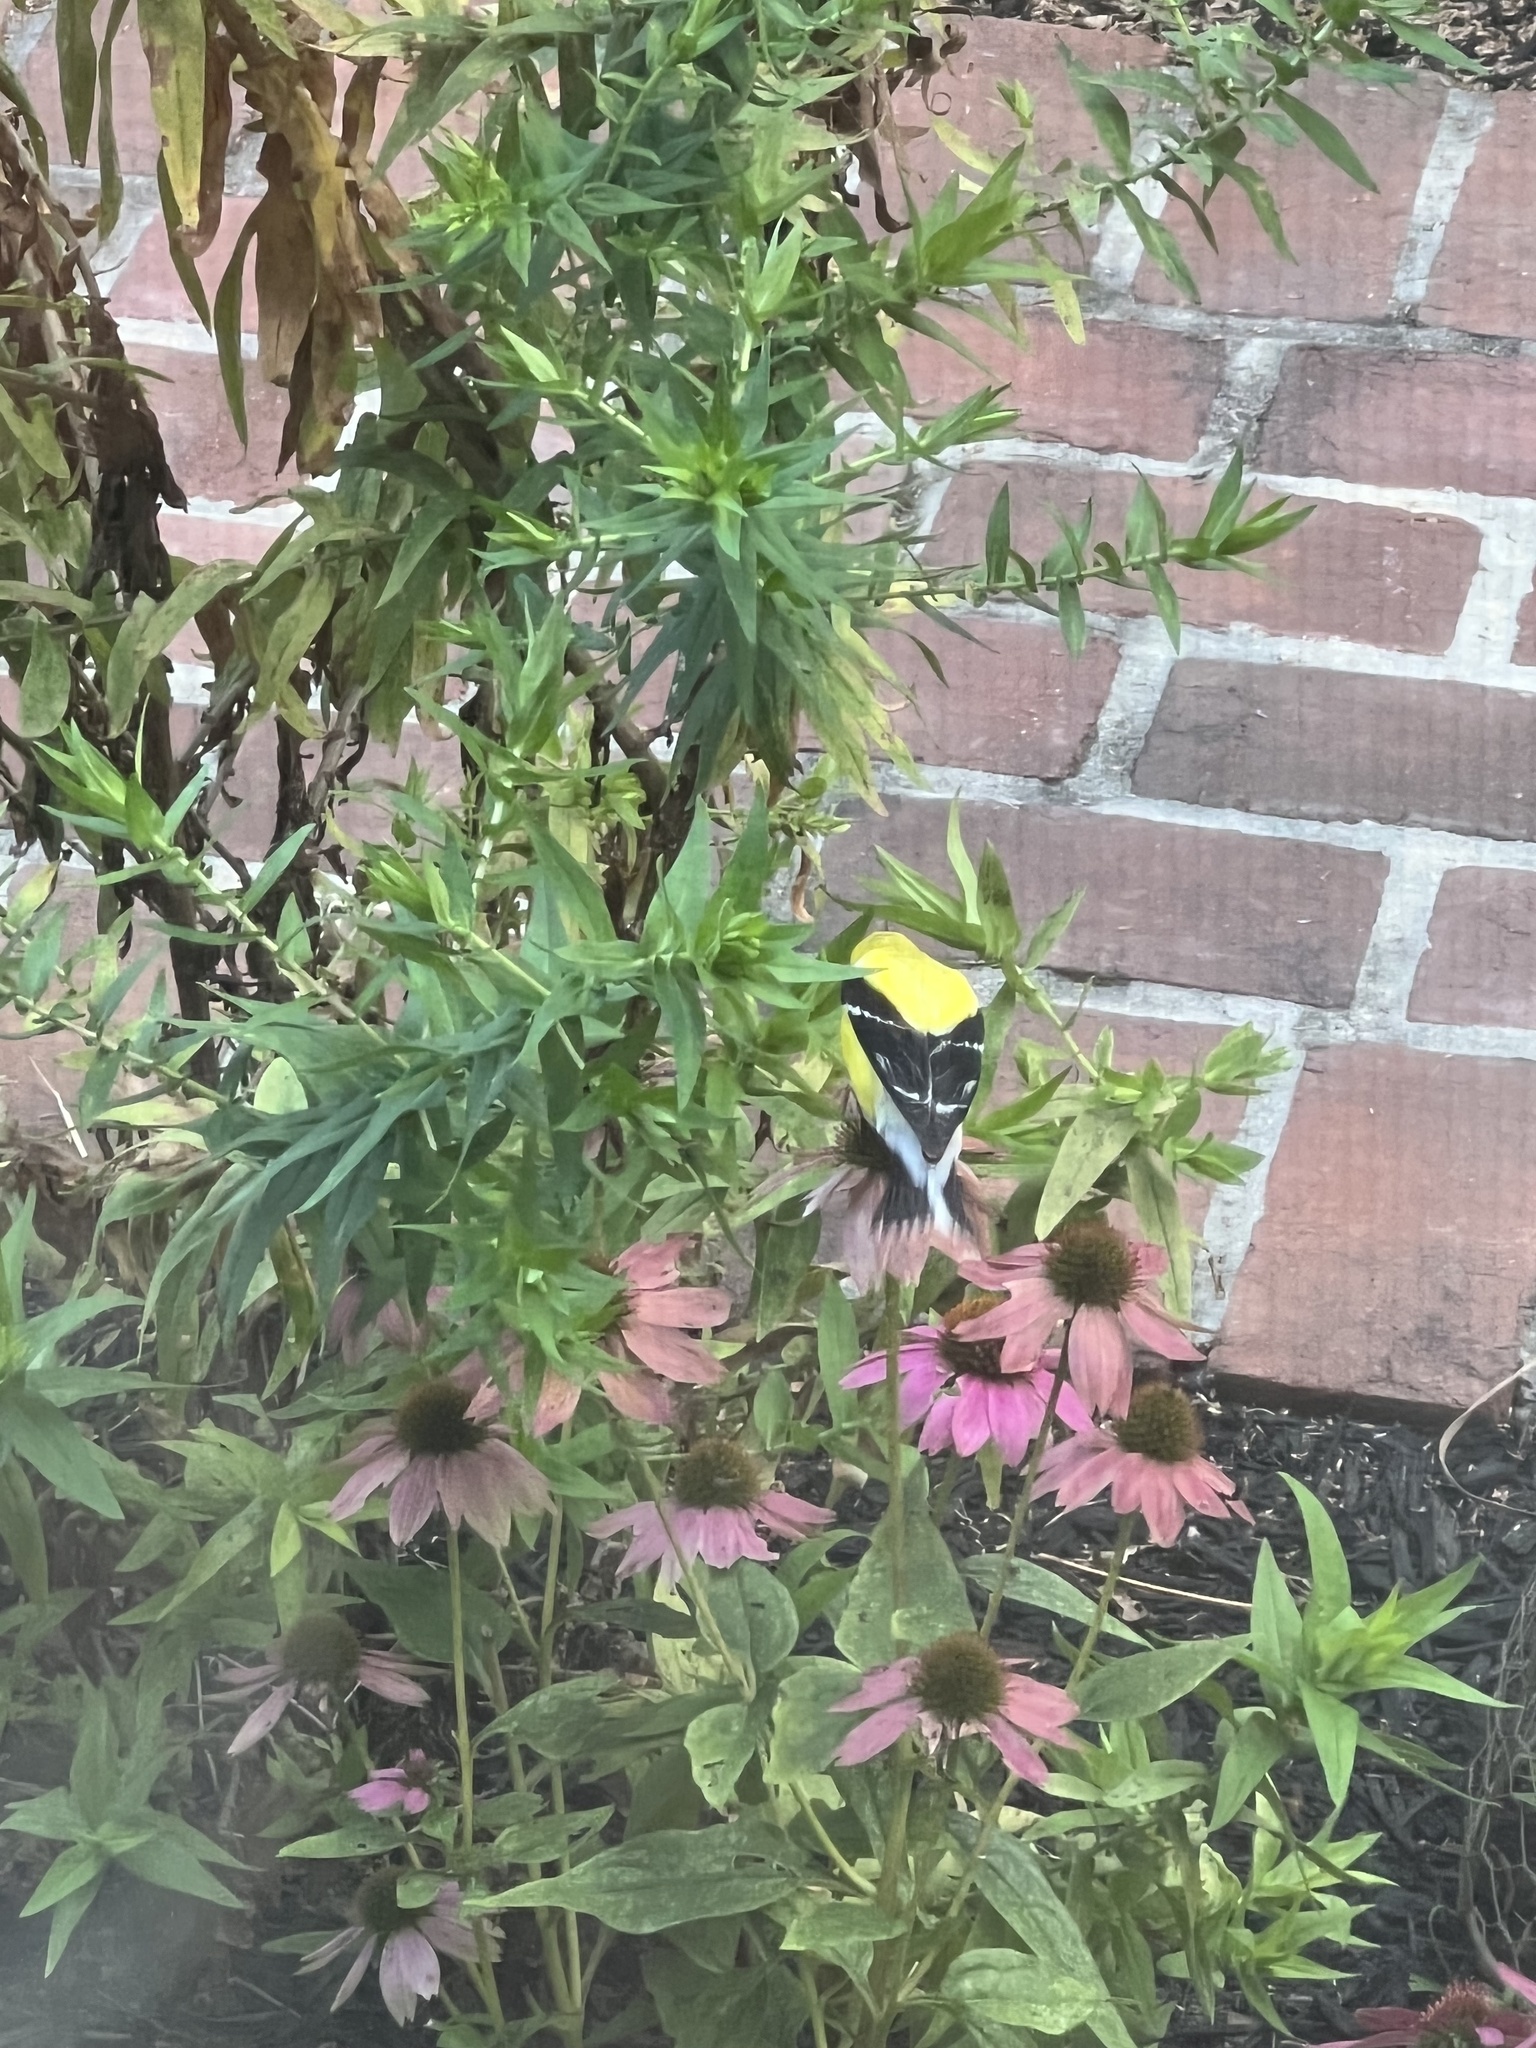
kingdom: Animalia
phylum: Chordata
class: Aves
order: Passeriformes
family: Fringillidae
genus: Spinus
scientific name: Spinus tristis
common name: American goldfinch
